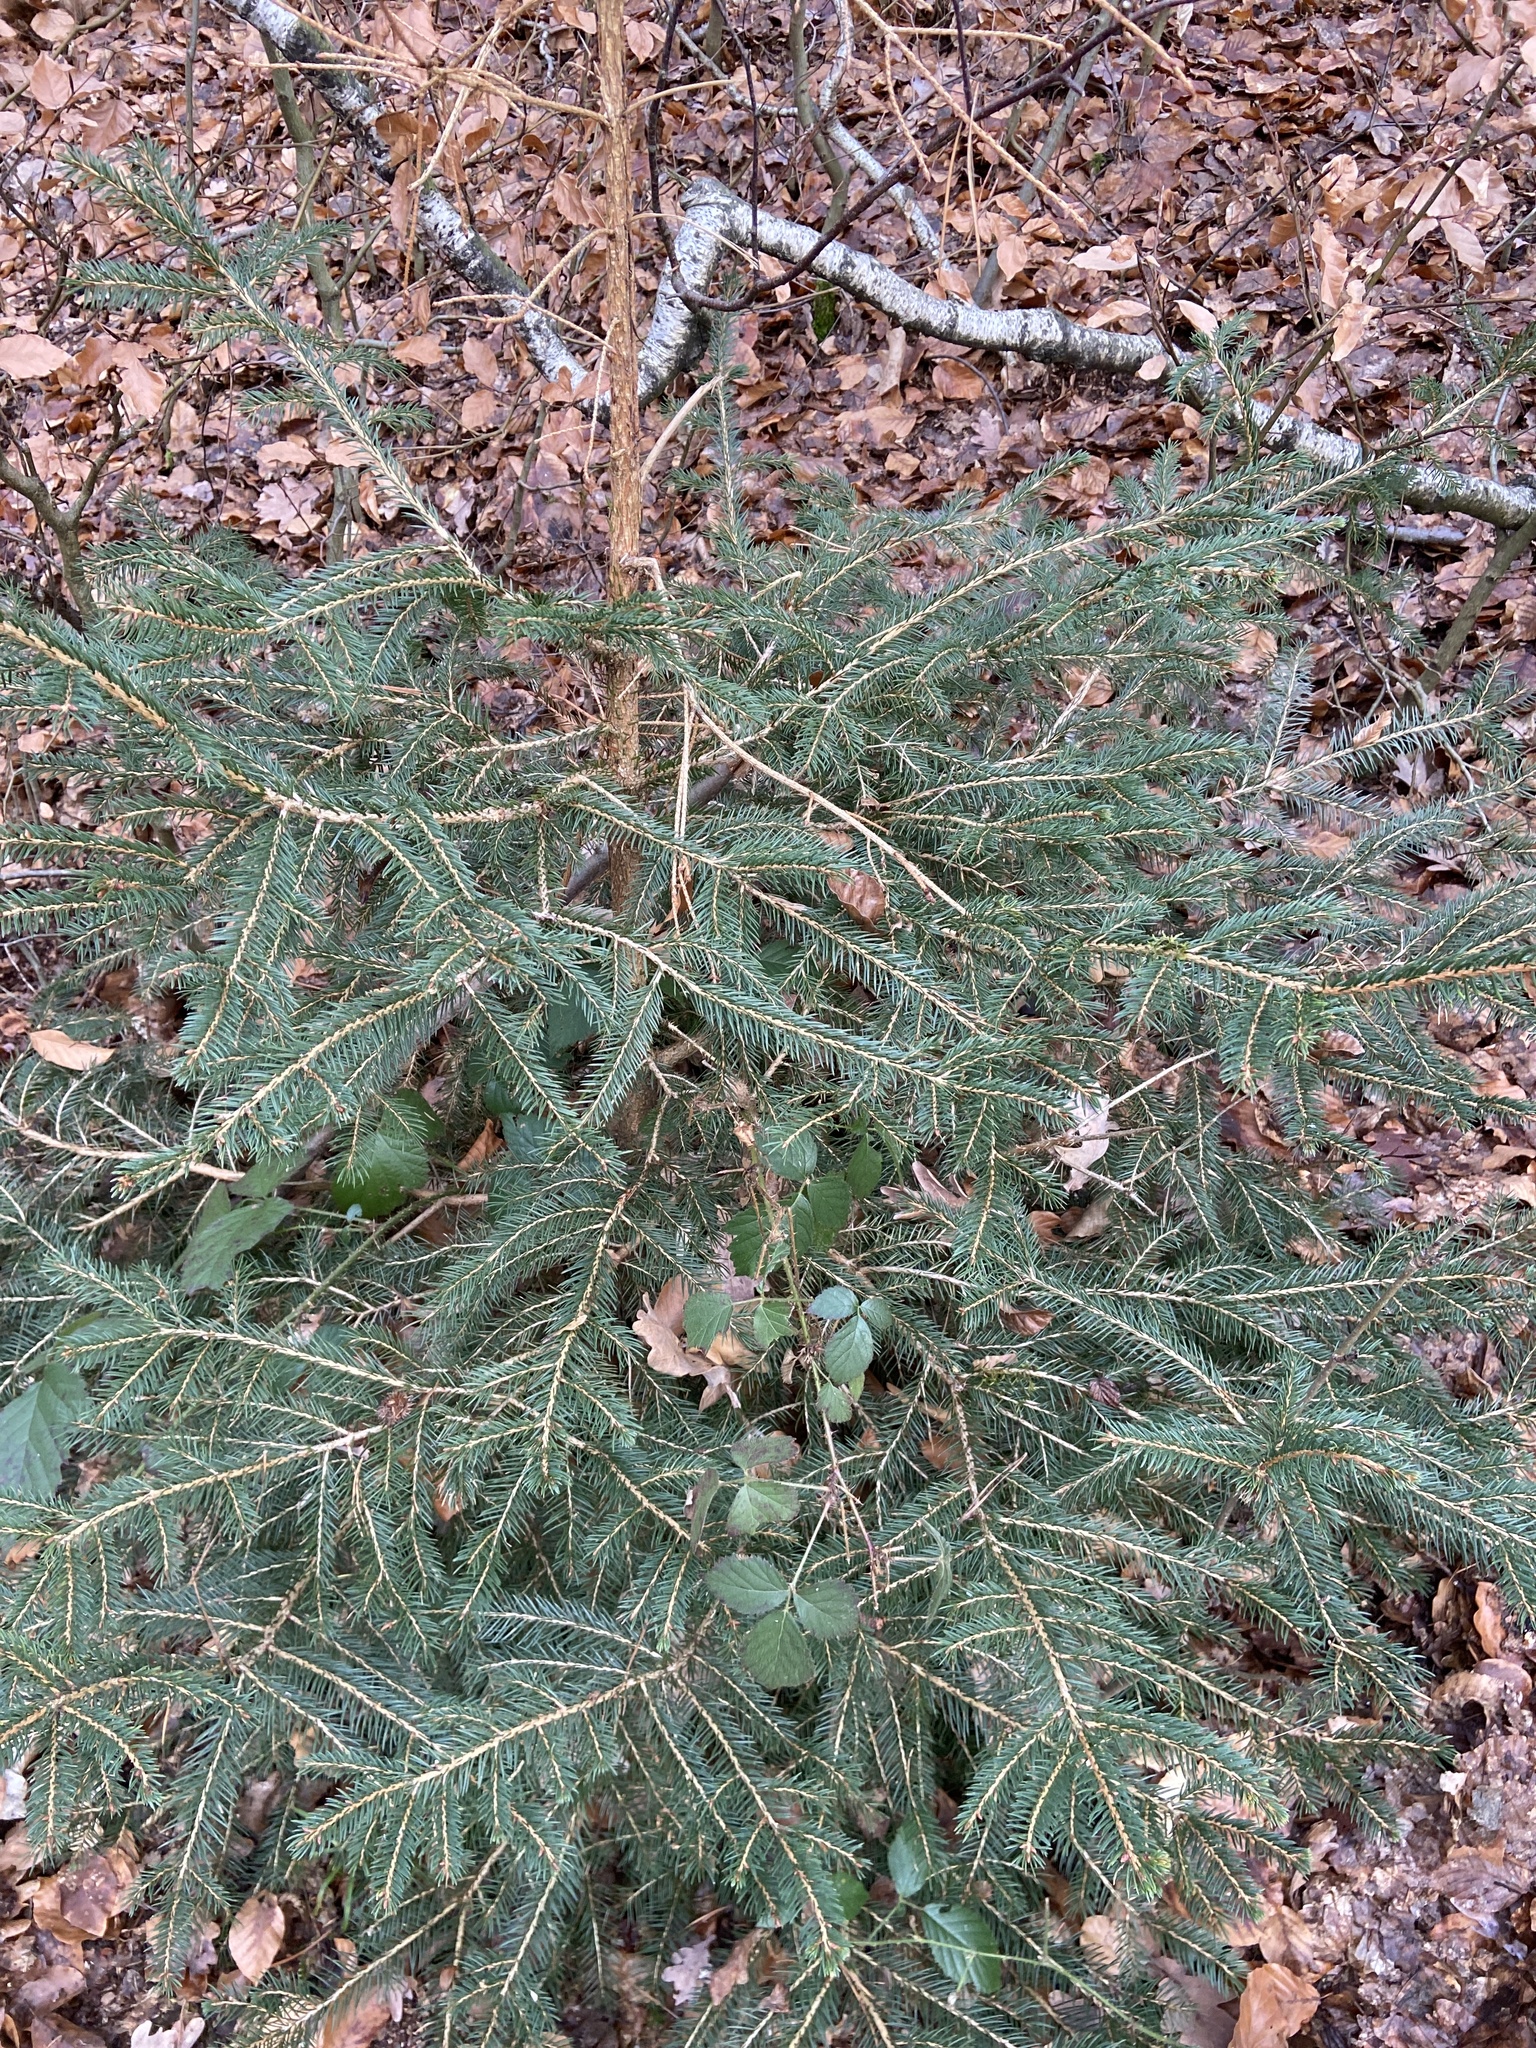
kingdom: Plantae
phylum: Tracheophyta
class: Pinopsida
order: Pinales
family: Pinaceae
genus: Picea
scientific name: Picea abies
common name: Norway spruce
